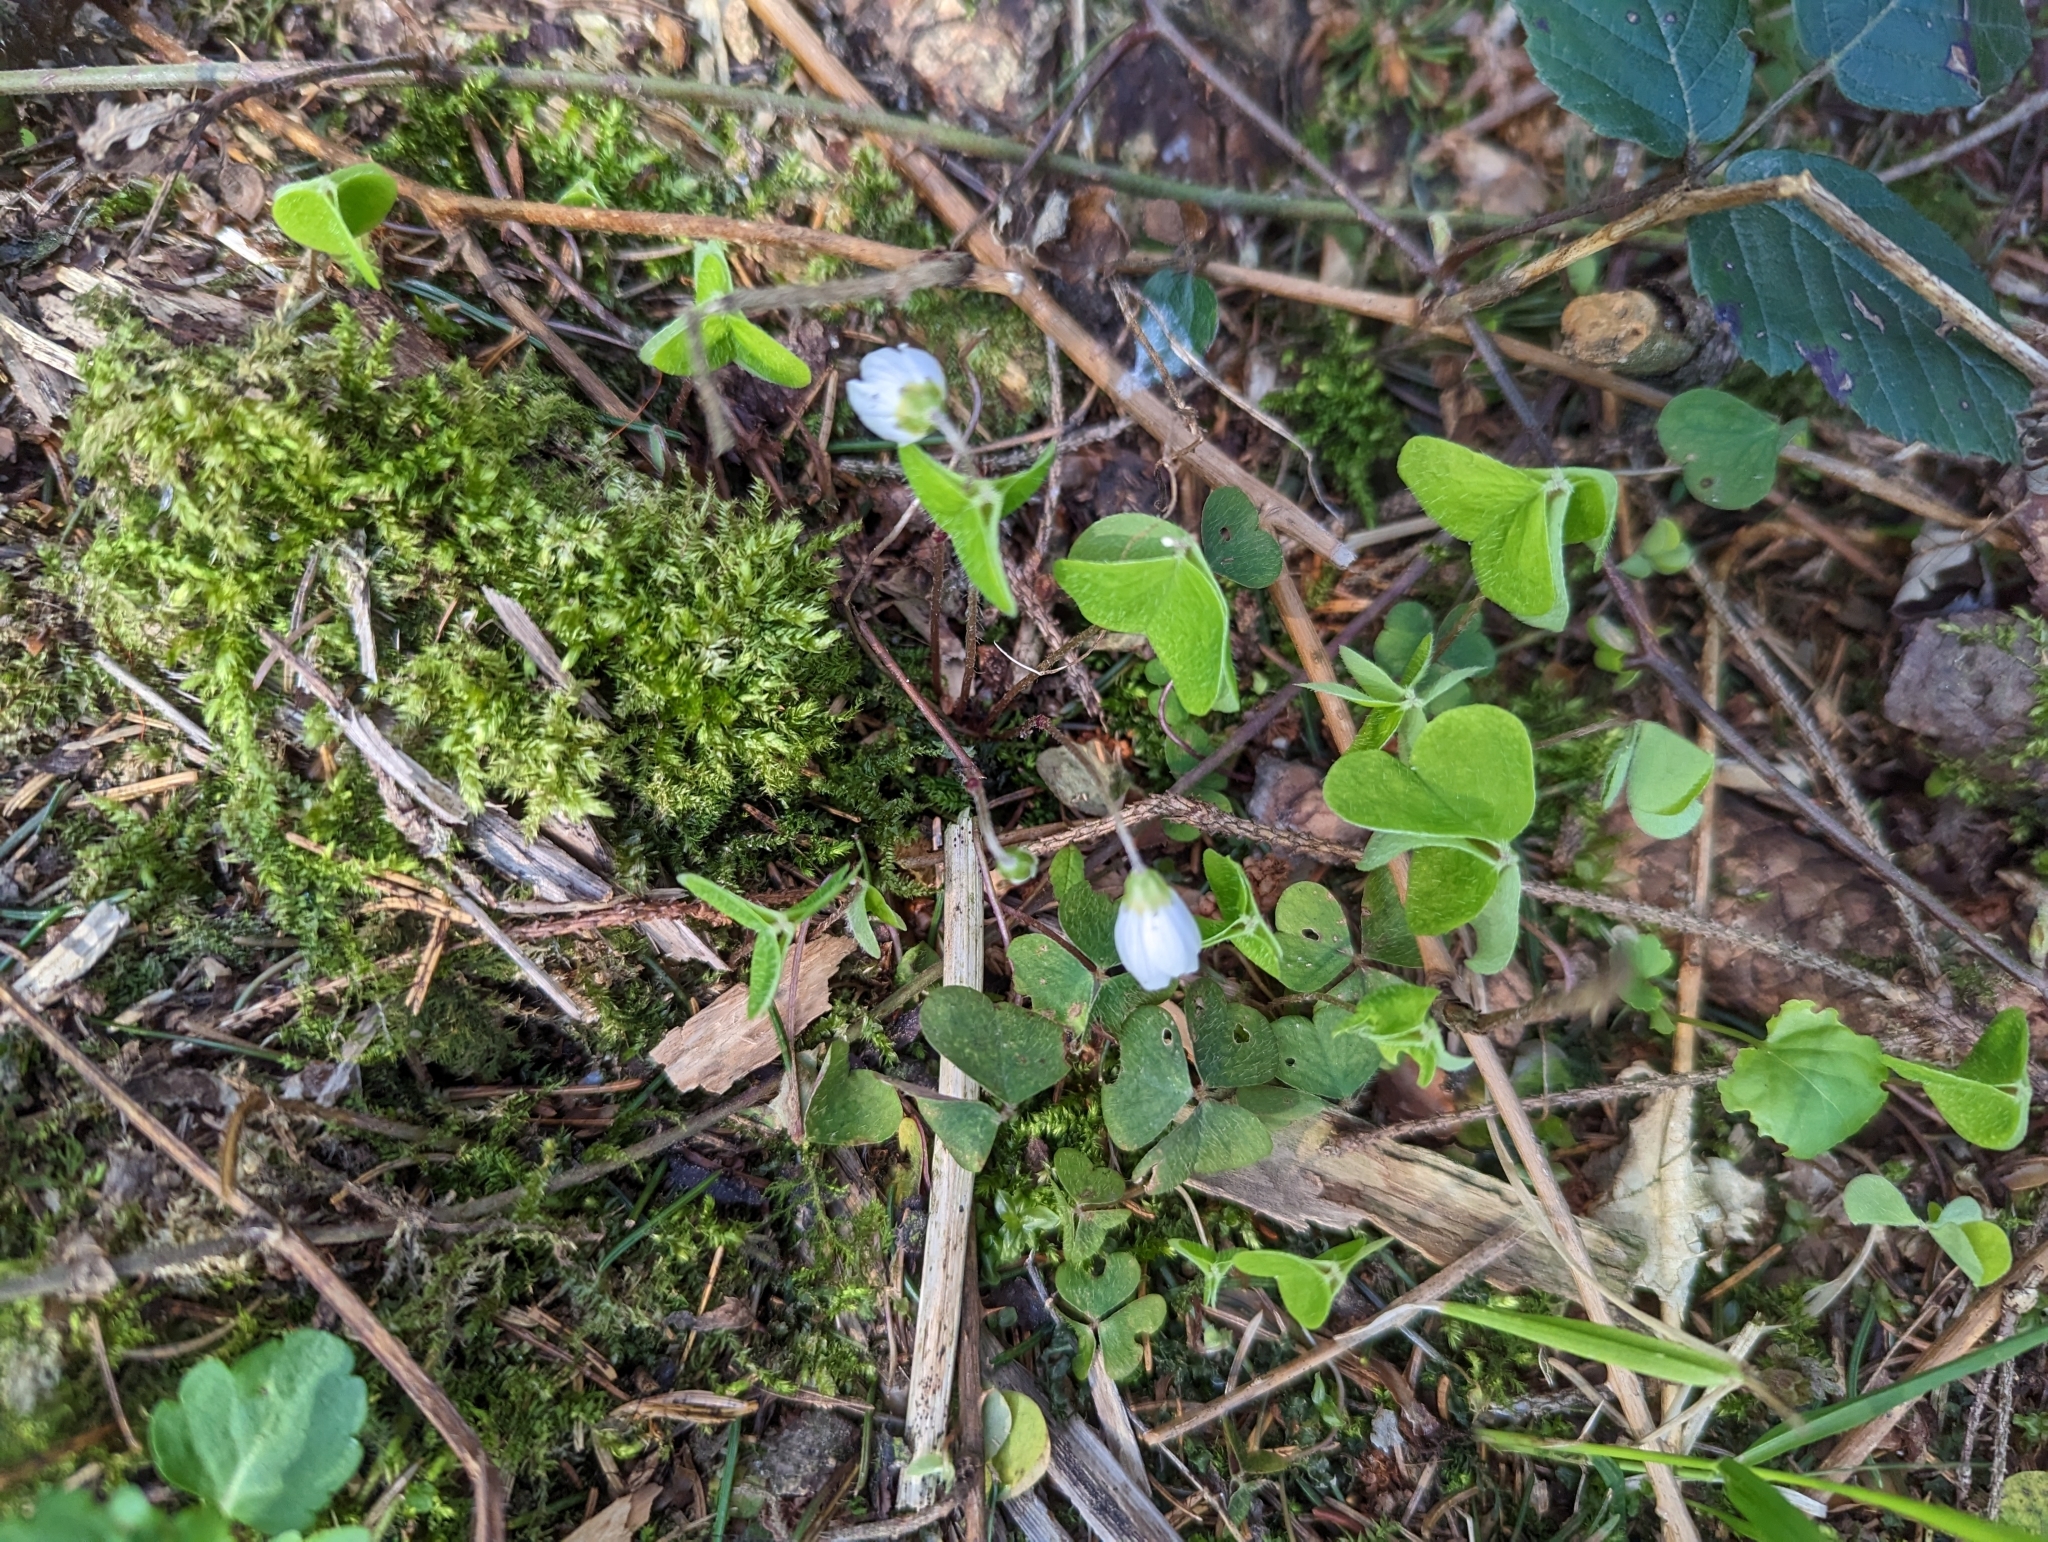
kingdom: Plantae
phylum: Tracheophyta
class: Magnoliopsida
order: Oxalidales
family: Oxalidaceae
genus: Oxalis
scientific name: Oxalis acetosella
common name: Wood-sorrel
